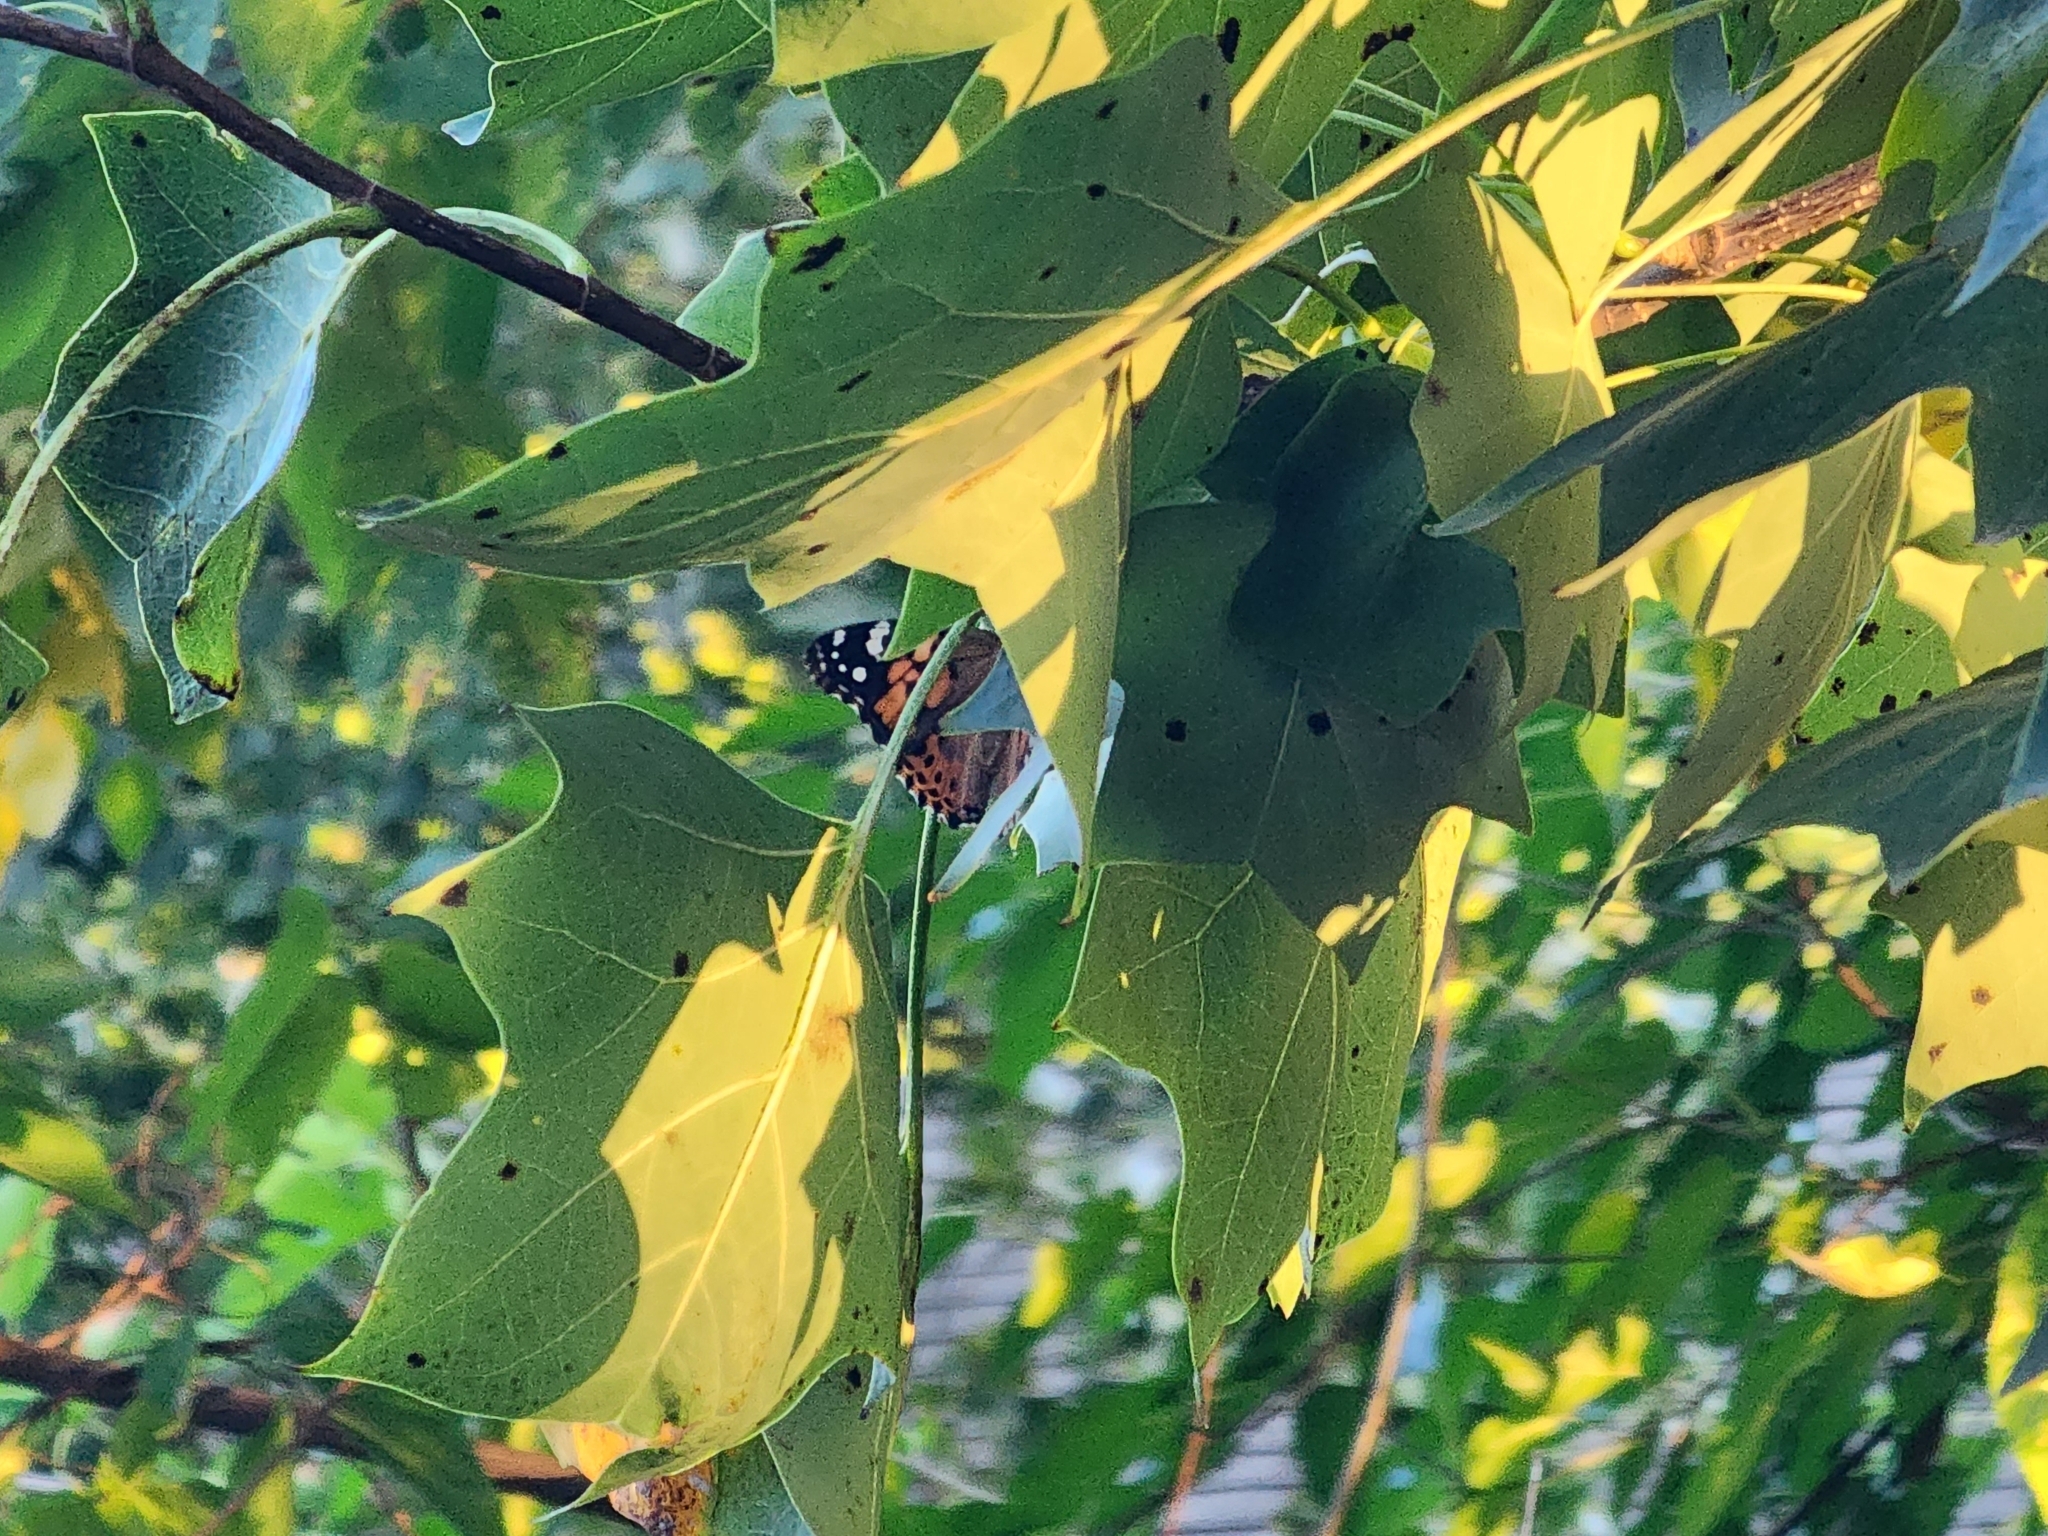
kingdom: Animalia
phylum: Arthropoda
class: Insecta
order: Lepidoptera
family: Nymphalidae
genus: Vanessa
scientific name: Vanessa cardui
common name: Painted lady
